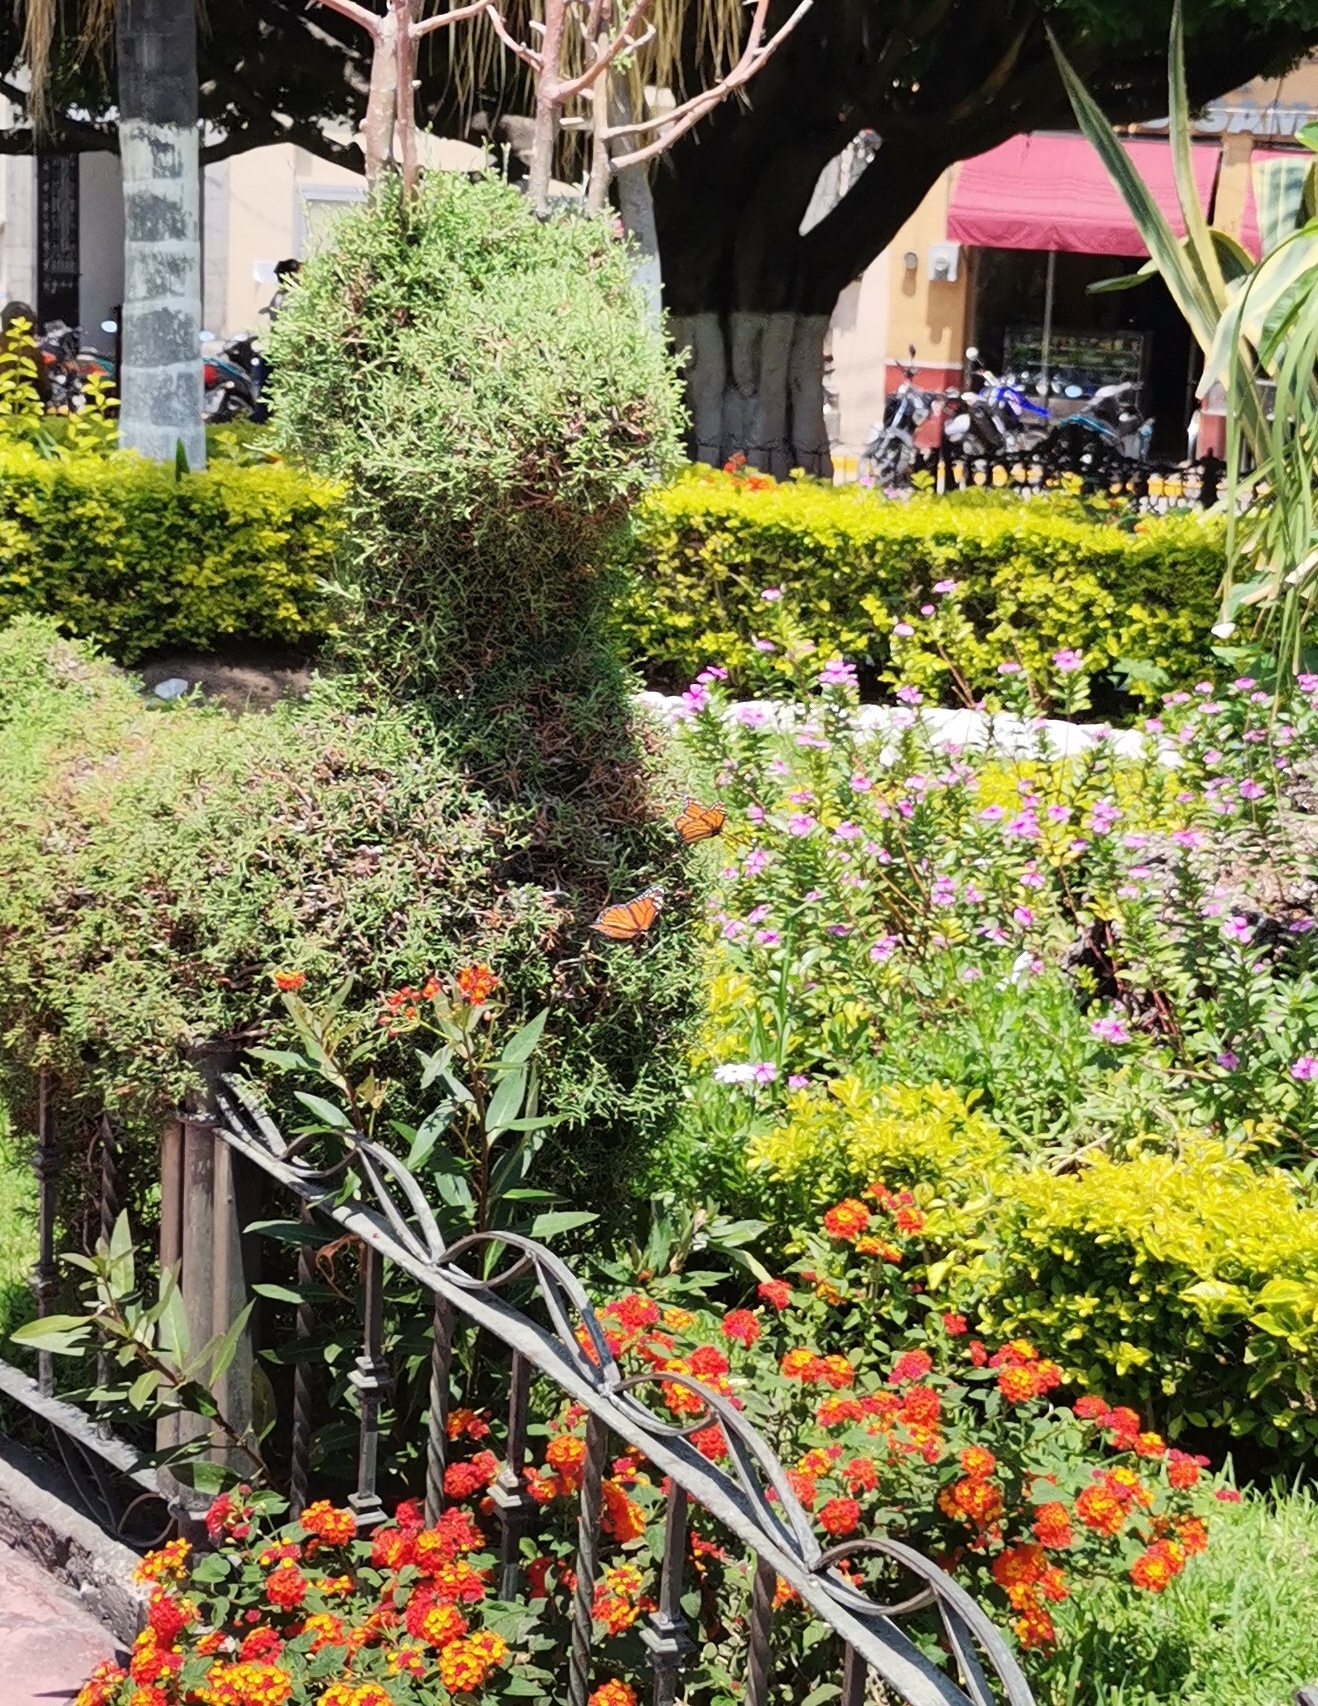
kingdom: Animalia
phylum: Arthropoda
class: Insecta
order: Lepidoptera
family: Nymphalidae
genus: Danaus
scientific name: Danaus plexippus
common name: Monarch
